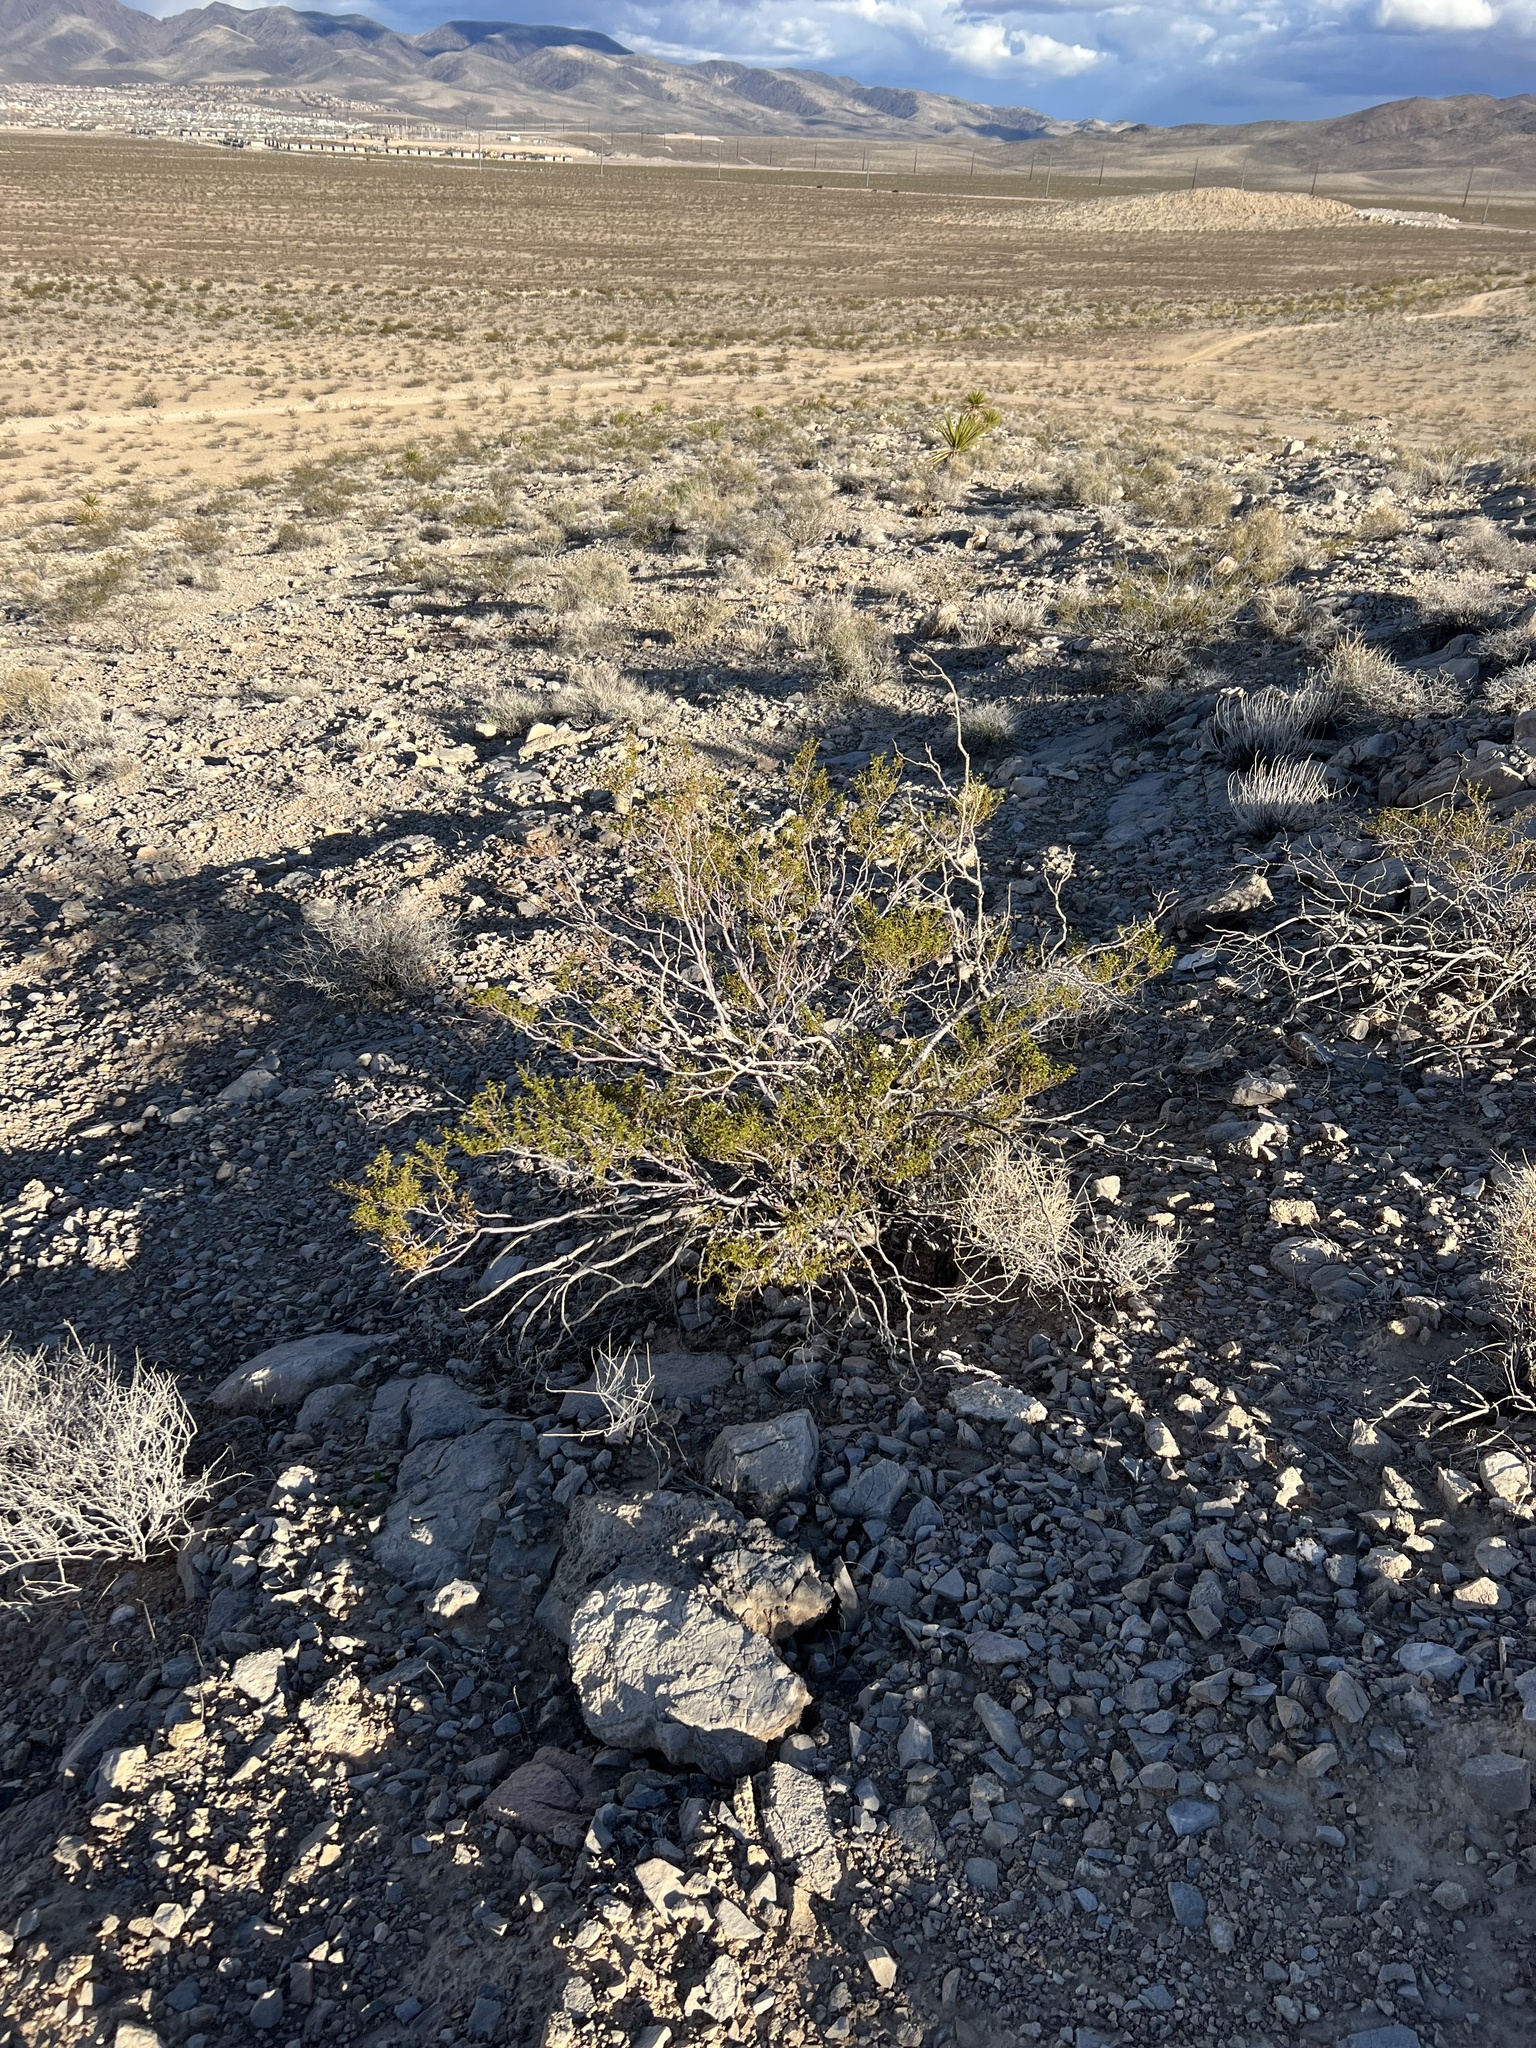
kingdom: Plantae
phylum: Tracheophyta
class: Magnoliopsida
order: Zygophyllales
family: Zygophyllaceae
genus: Larrea
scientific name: Larrea tridentata
